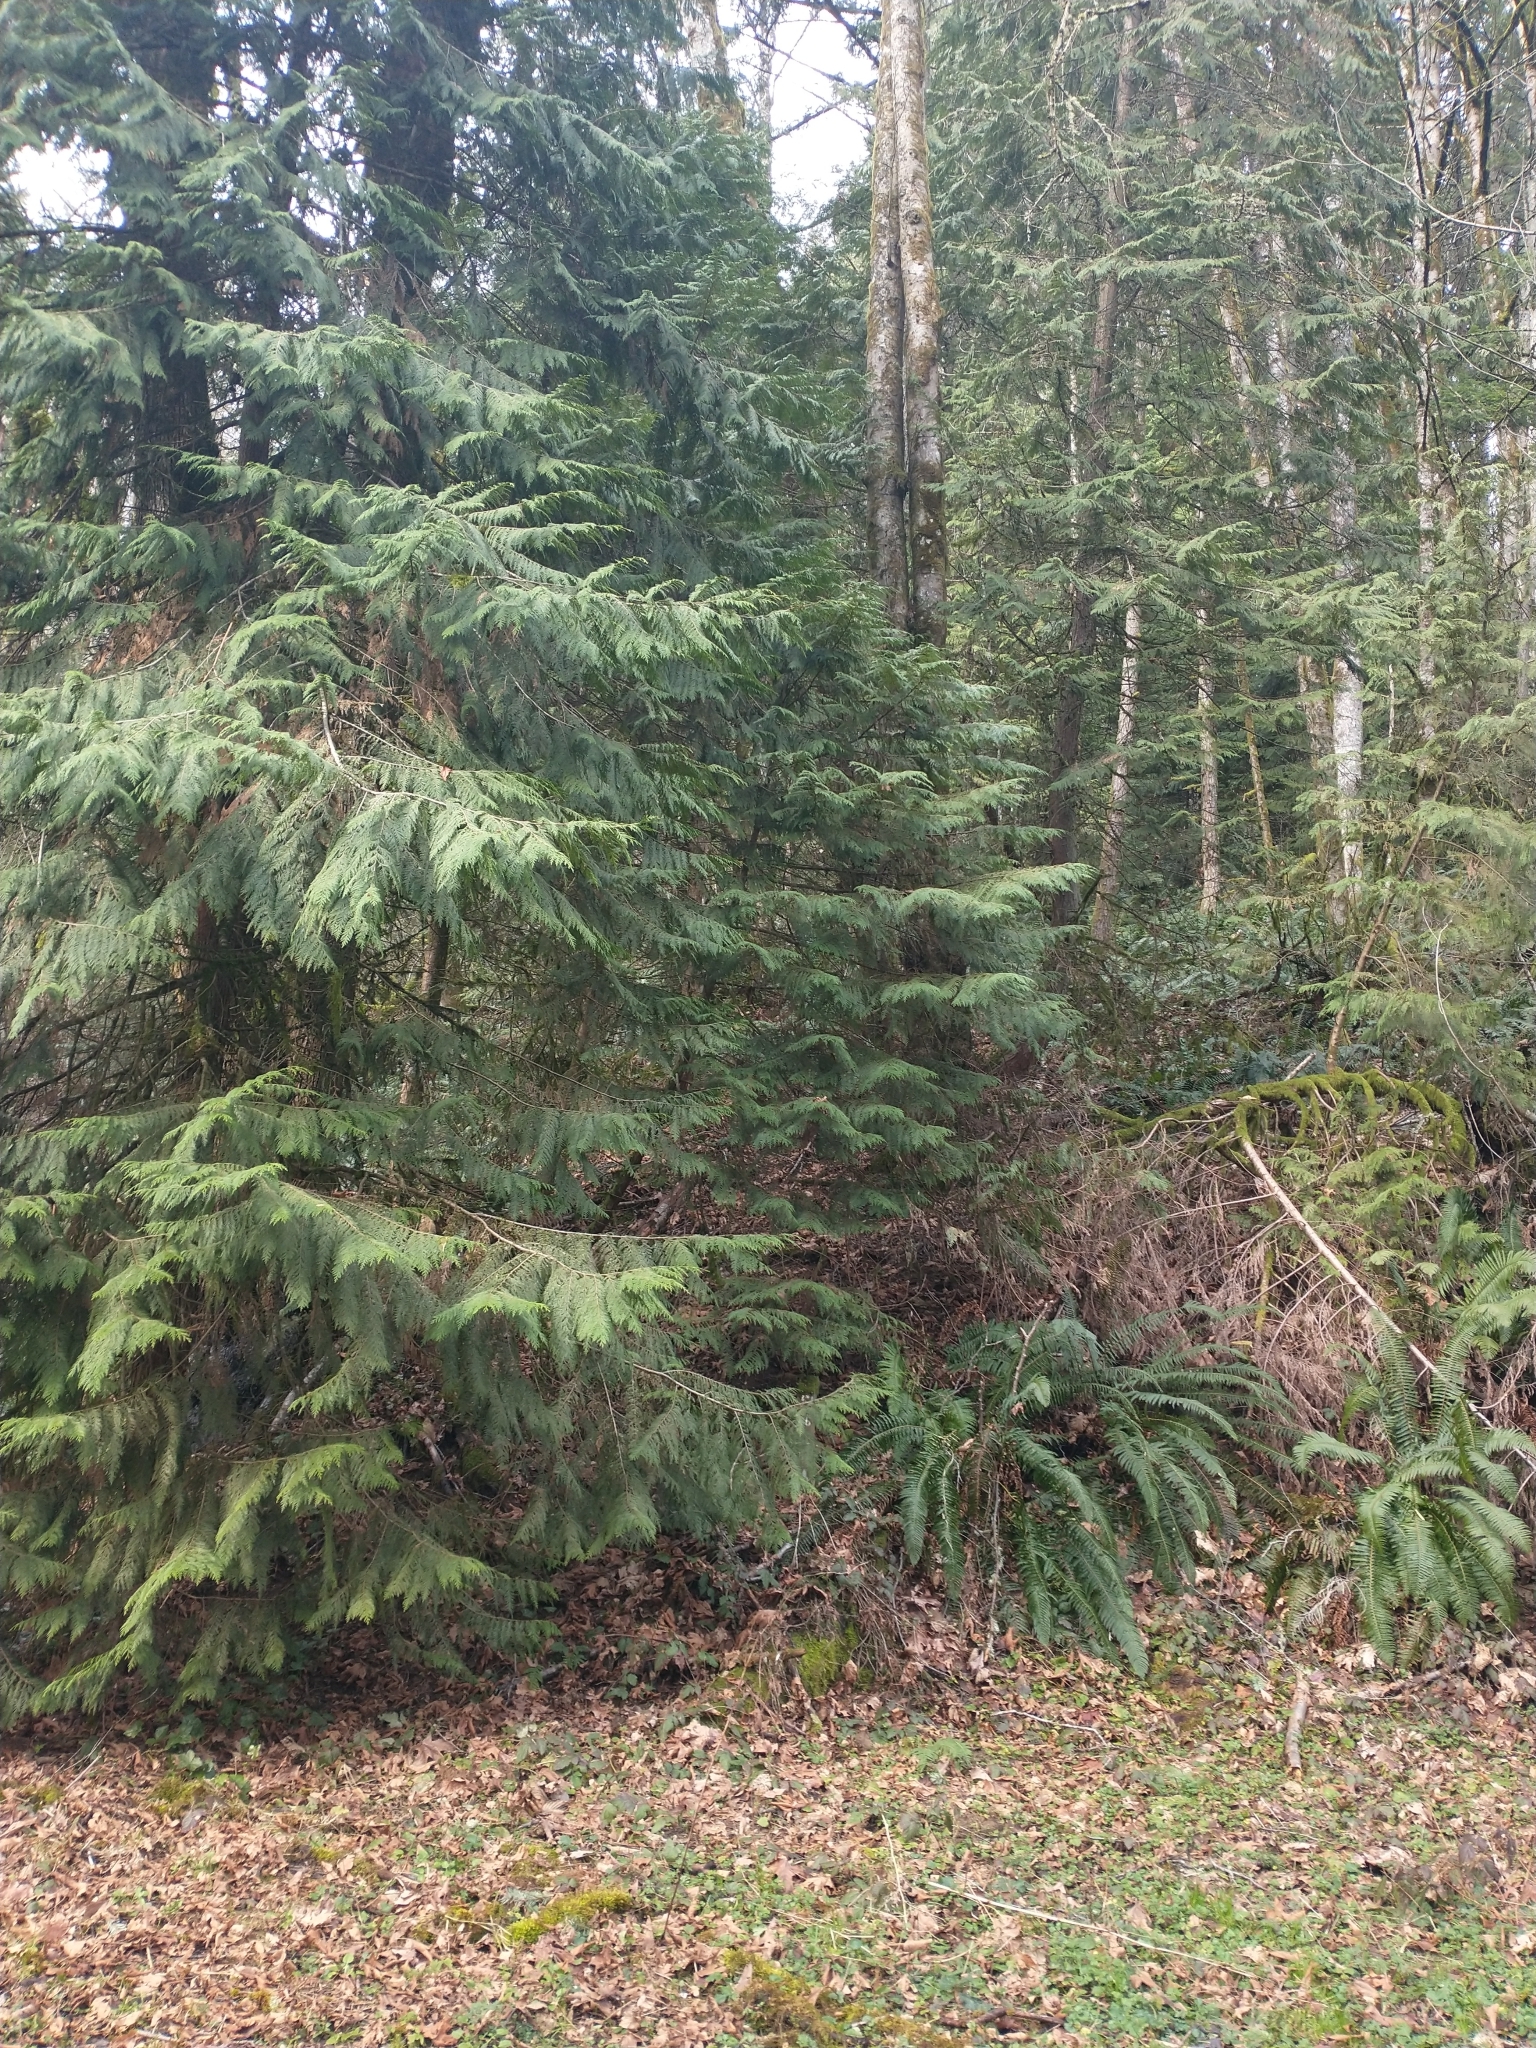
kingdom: Plantae
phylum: Tracheophyta
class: Pinopsida
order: Pinales
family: Cupressaceae
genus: Chamaecyparis
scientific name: Chamaecyparis lawsoniana
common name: Lawson's cypress
